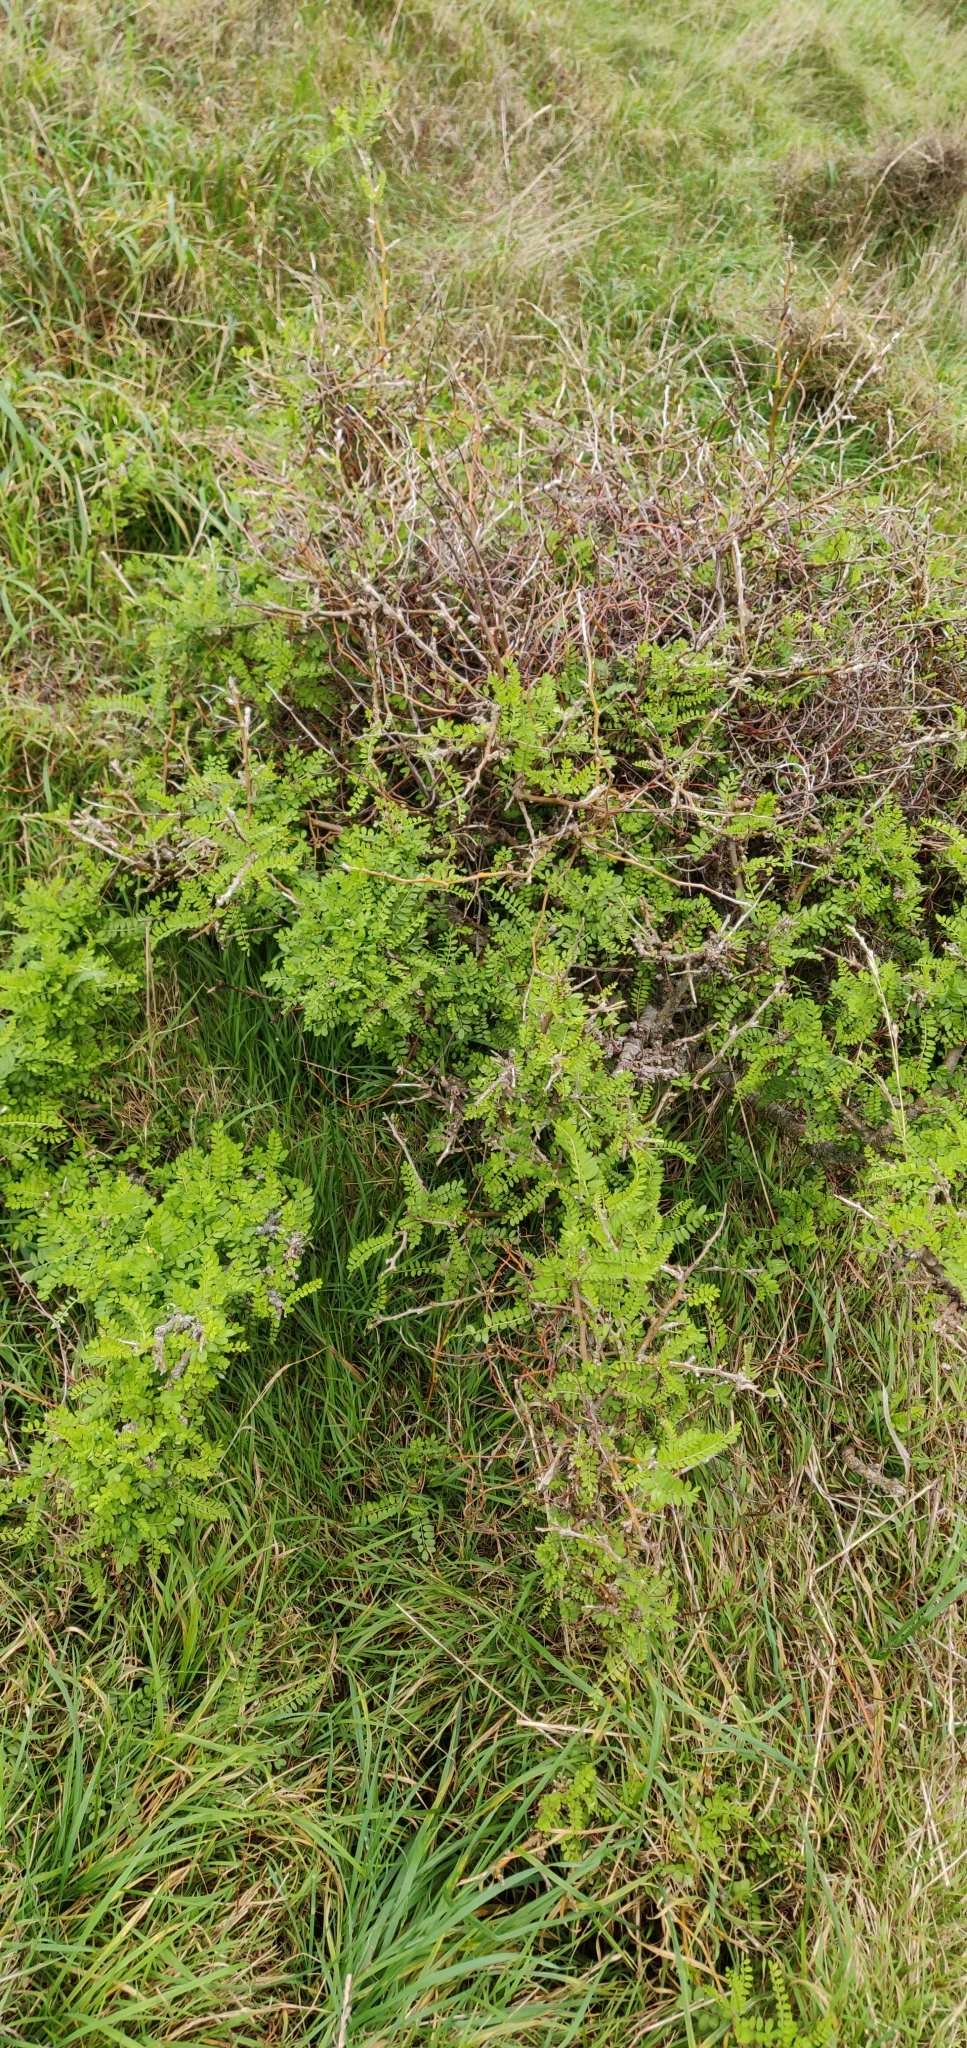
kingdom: Plantae
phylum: Tracheophyta
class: Magnoliopsida
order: Fabales
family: Fabaceae
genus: Sophora
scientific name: Sophora molloyi
